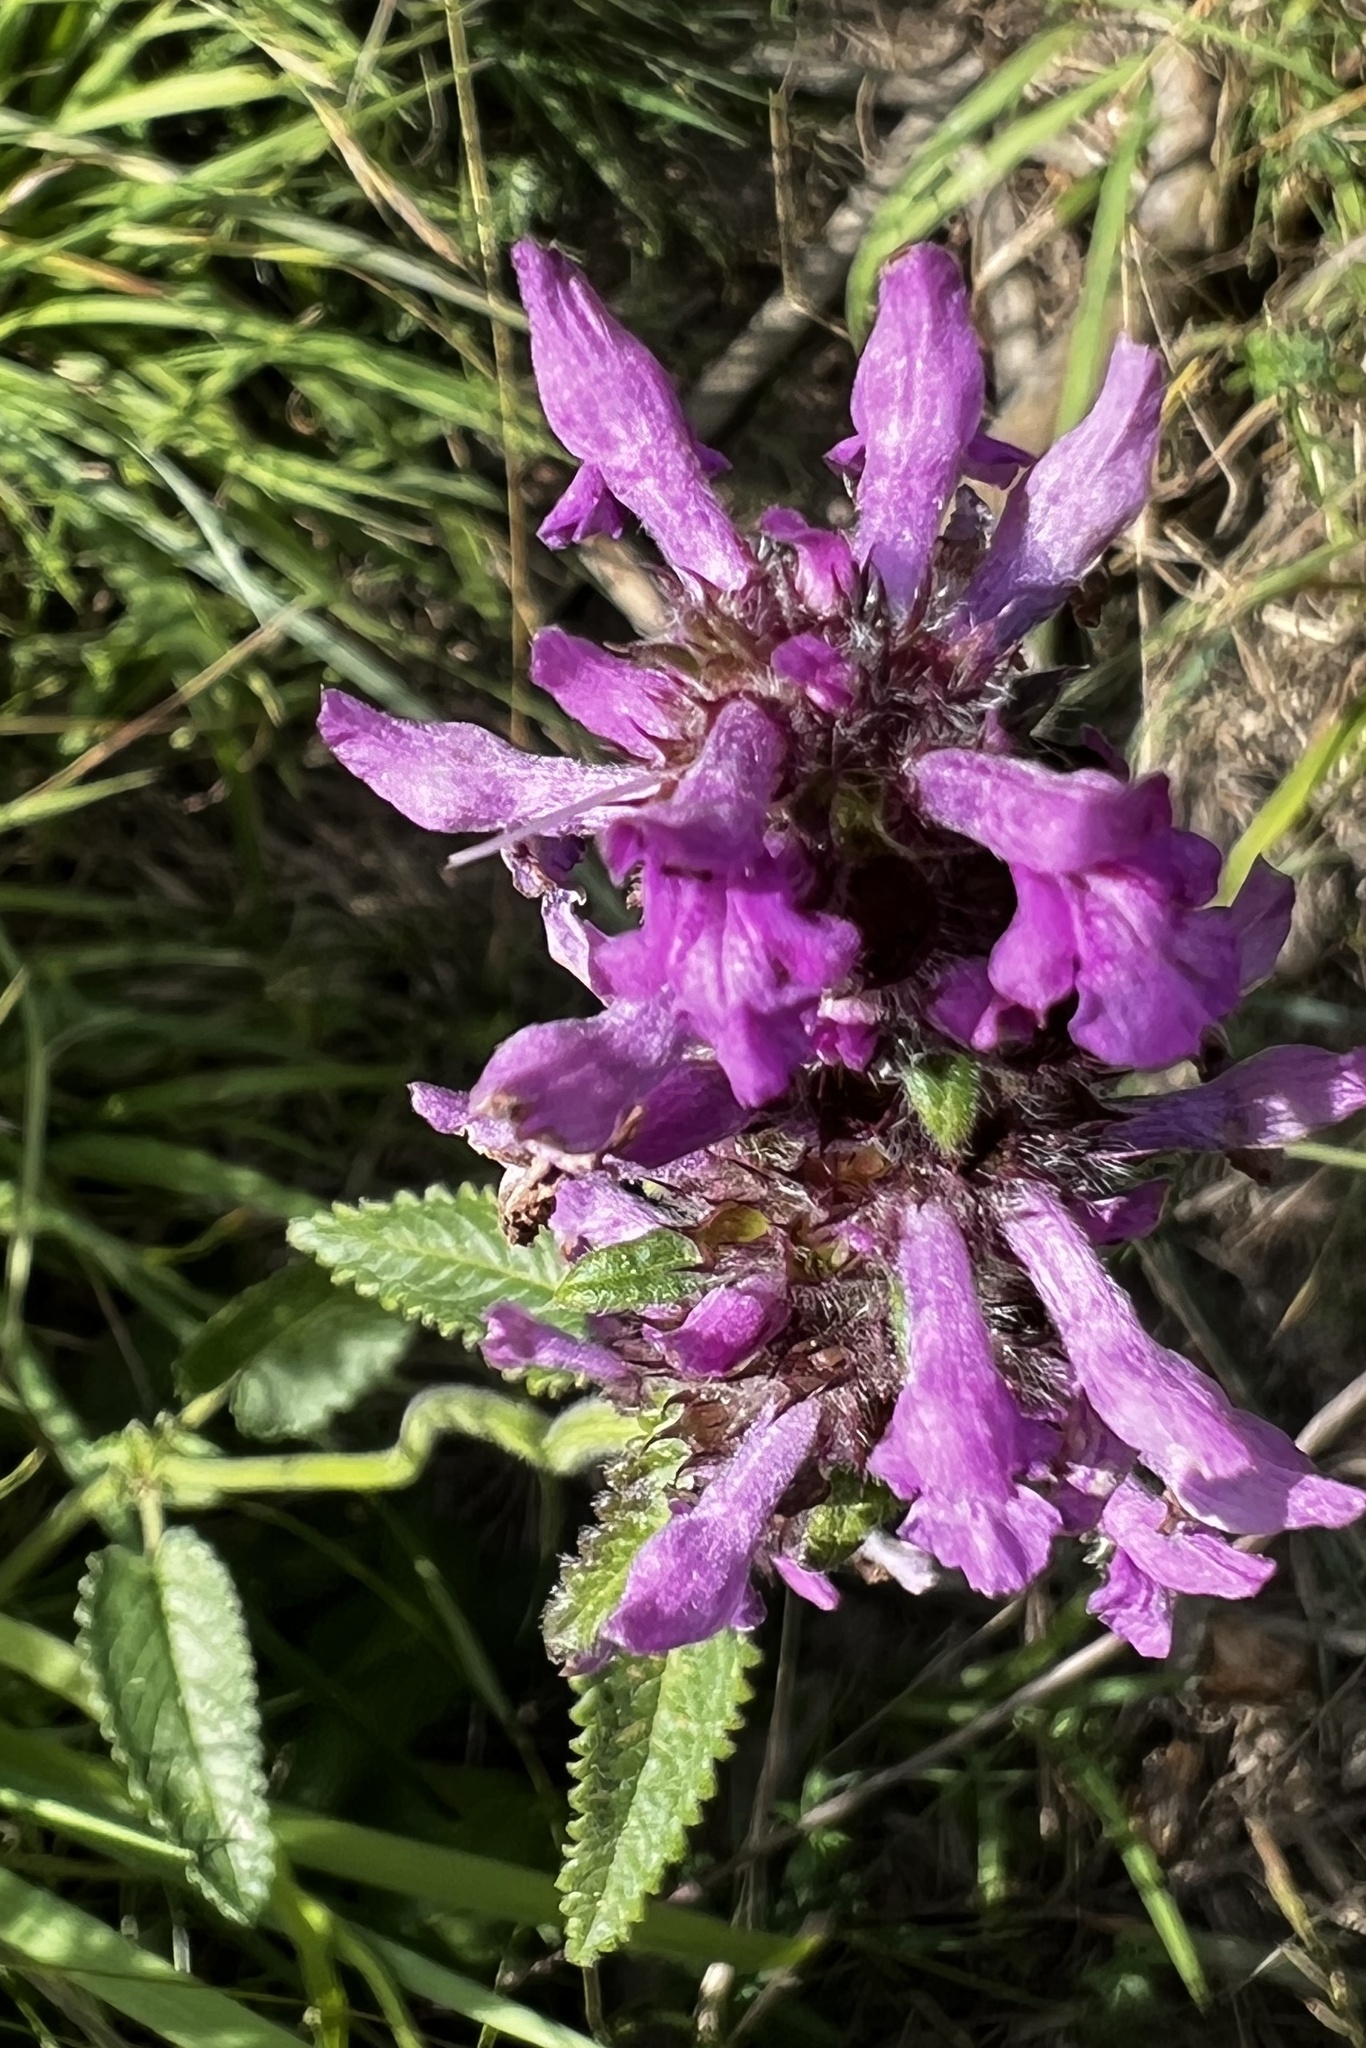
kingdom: Plantae
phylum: Tracheophyta
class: Magnoliopsida
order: Lamiales
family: Lamiaceae
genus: Betonica
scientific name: Betonica officinalis
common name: Bishop's-wort
